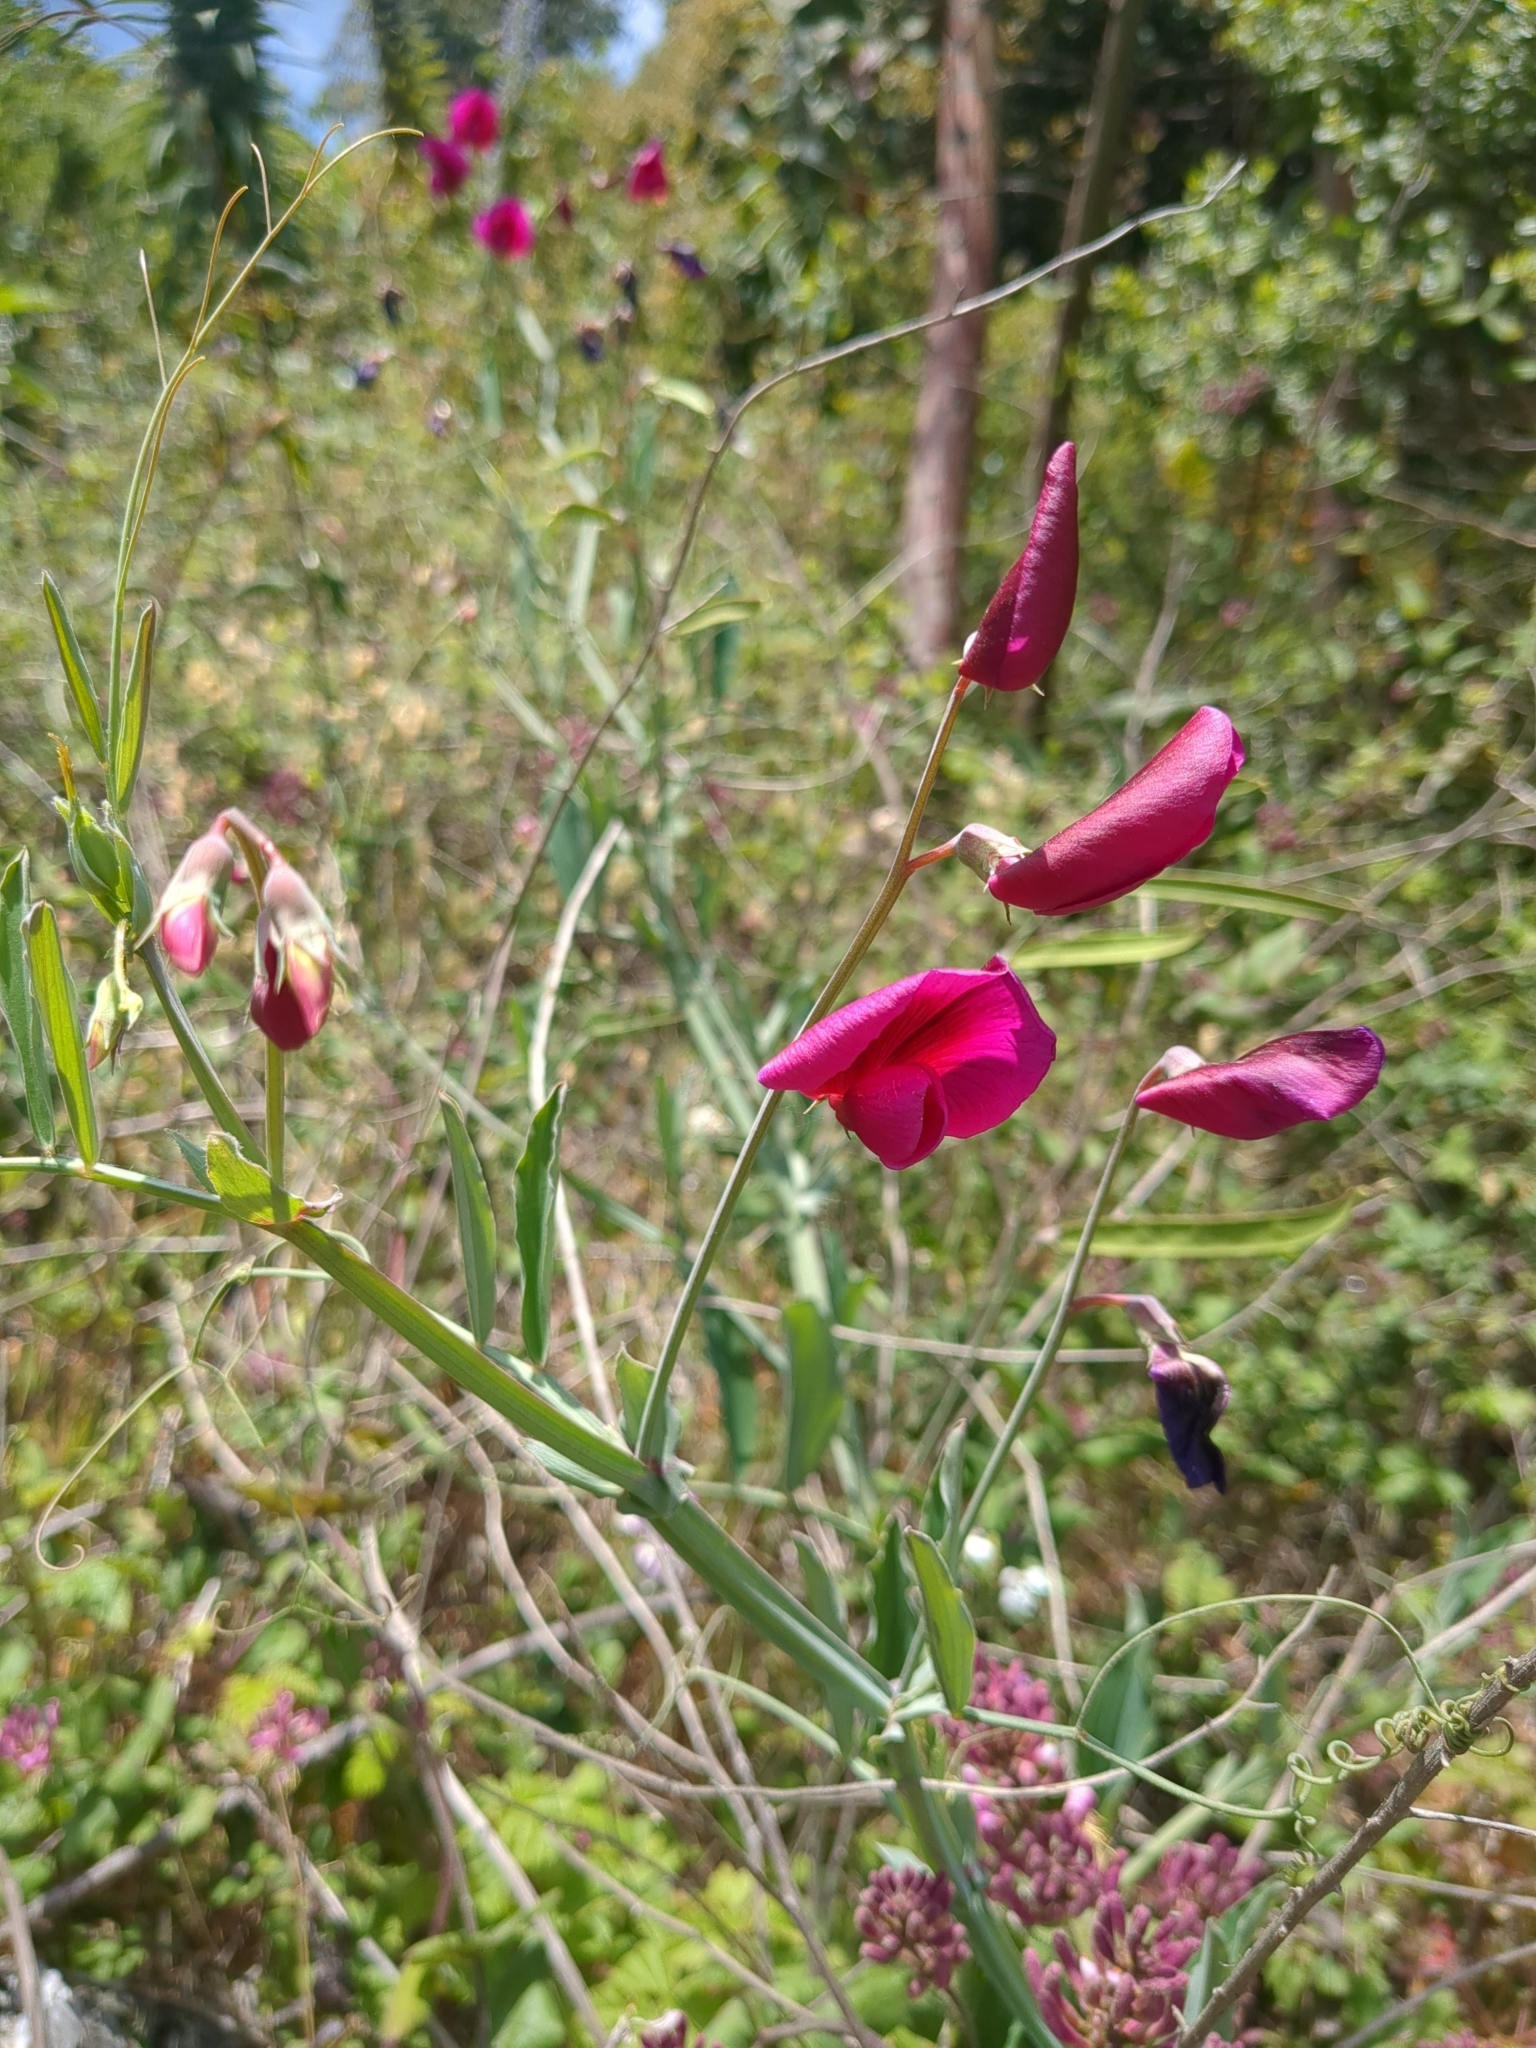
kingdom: Plantae
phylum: Tracheophyta
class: Magnoliopsida
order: Fabales
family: Fabaceae
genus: Lathyrus
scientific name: Lathyrus tingitanus
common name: Tangier pea
